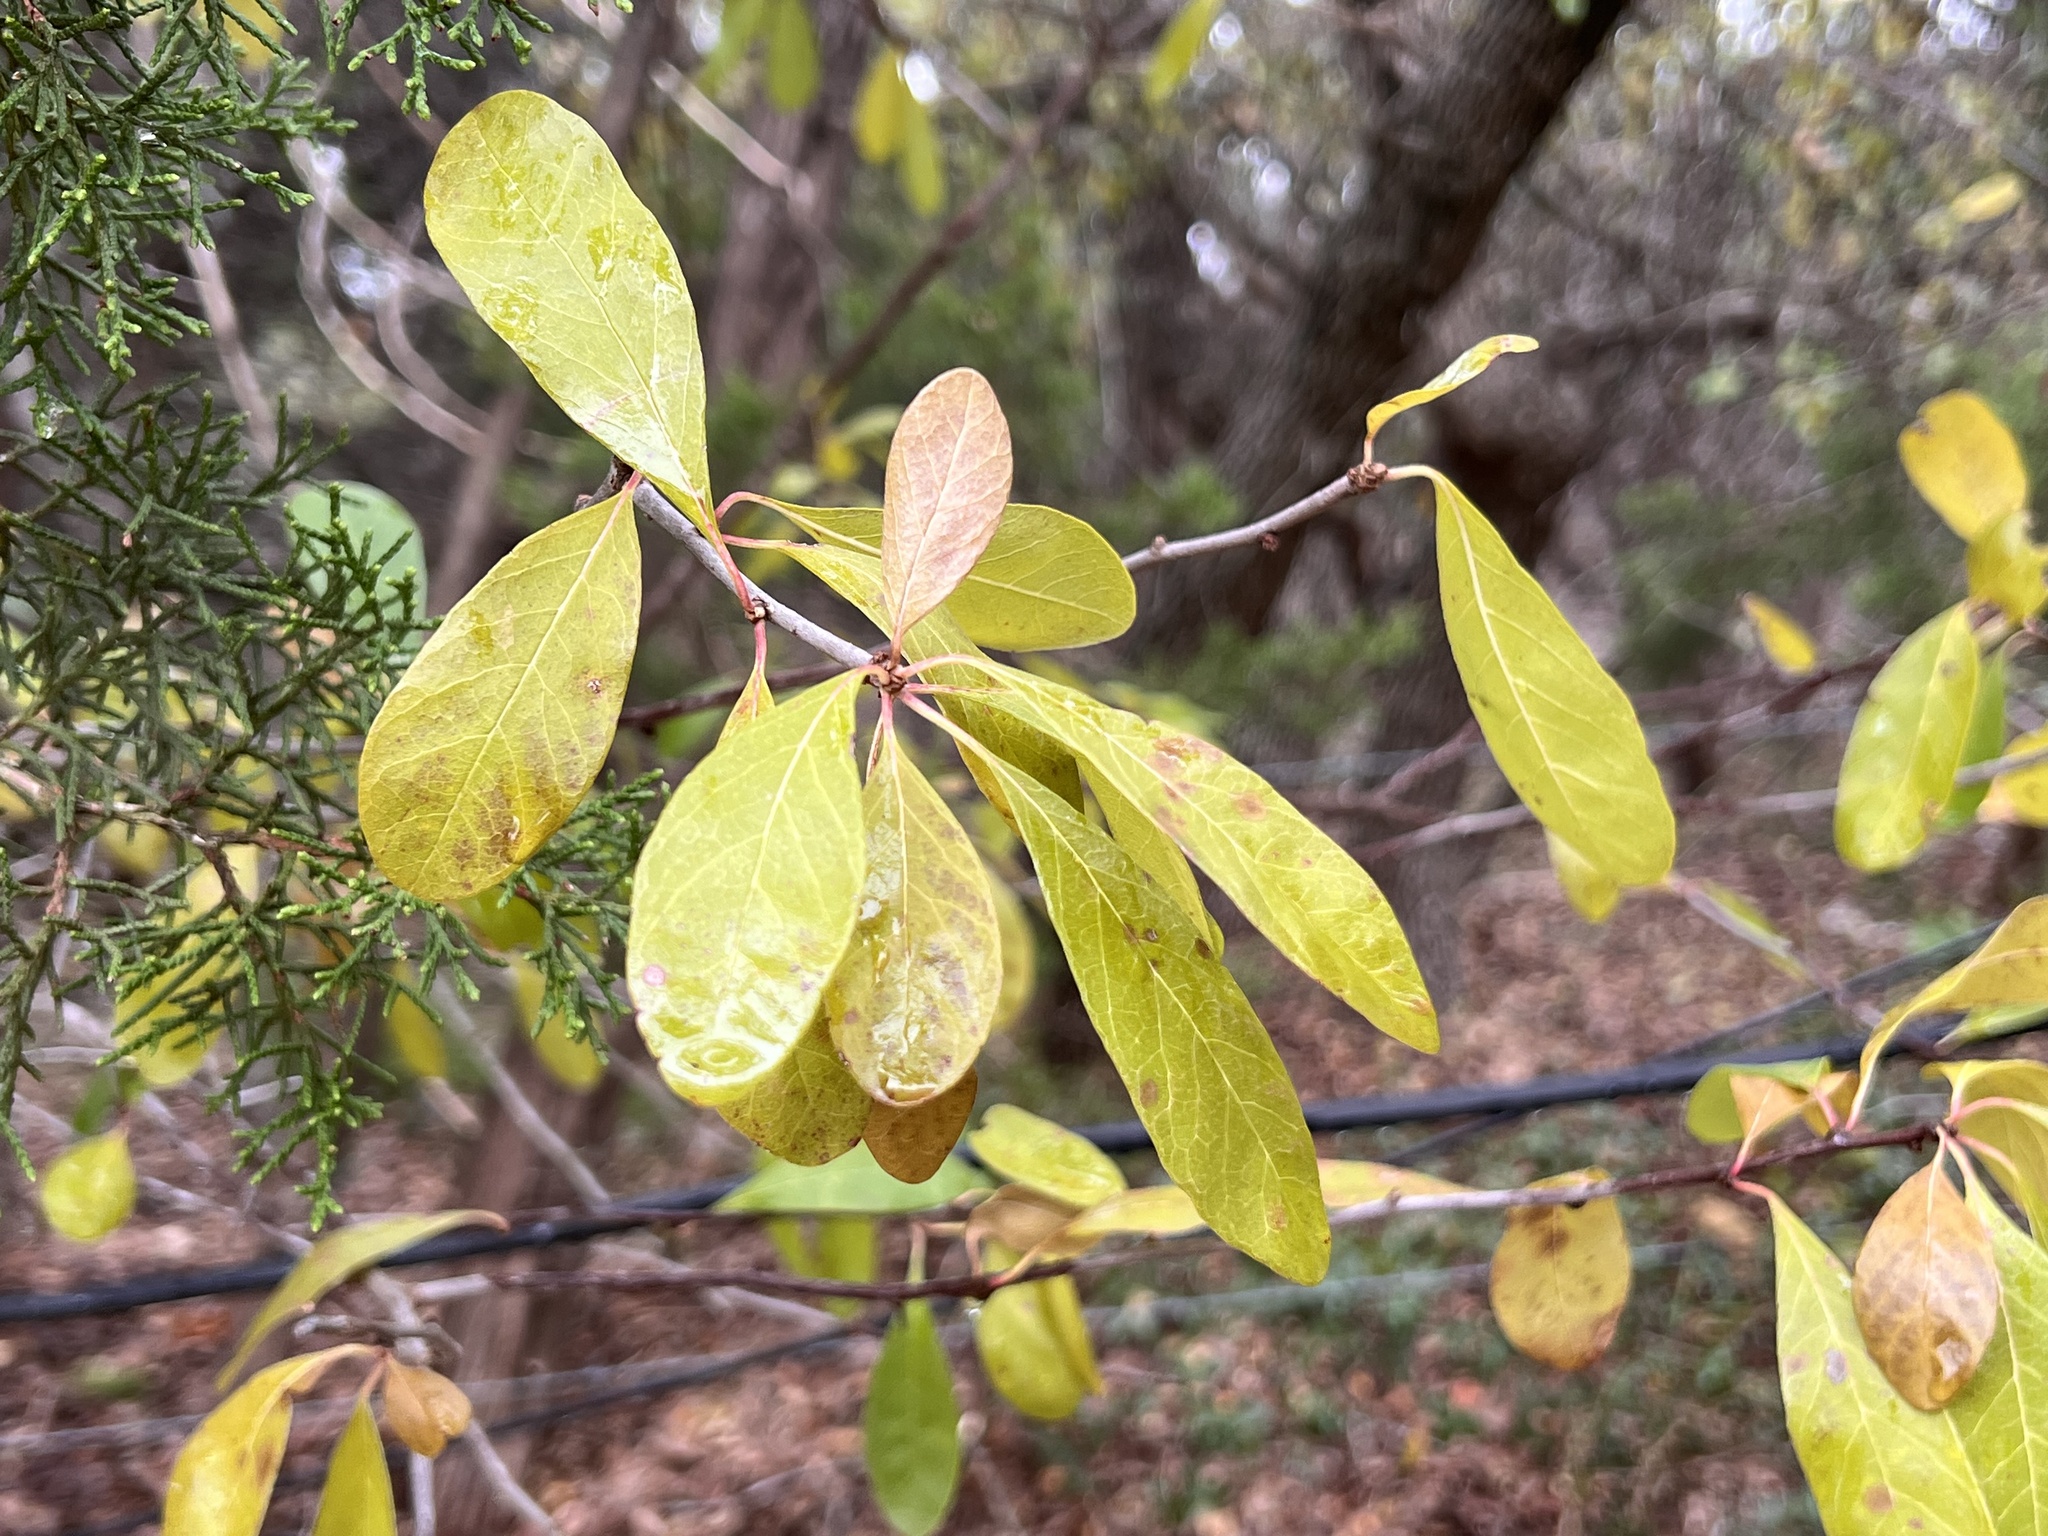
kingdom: Plantae
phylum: Tracheophyta
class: Magnoliopsida
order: Aquifoliales
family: Aquifoliaceae
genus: Ilex
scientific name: Ilex decidua
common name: Possum-haw
